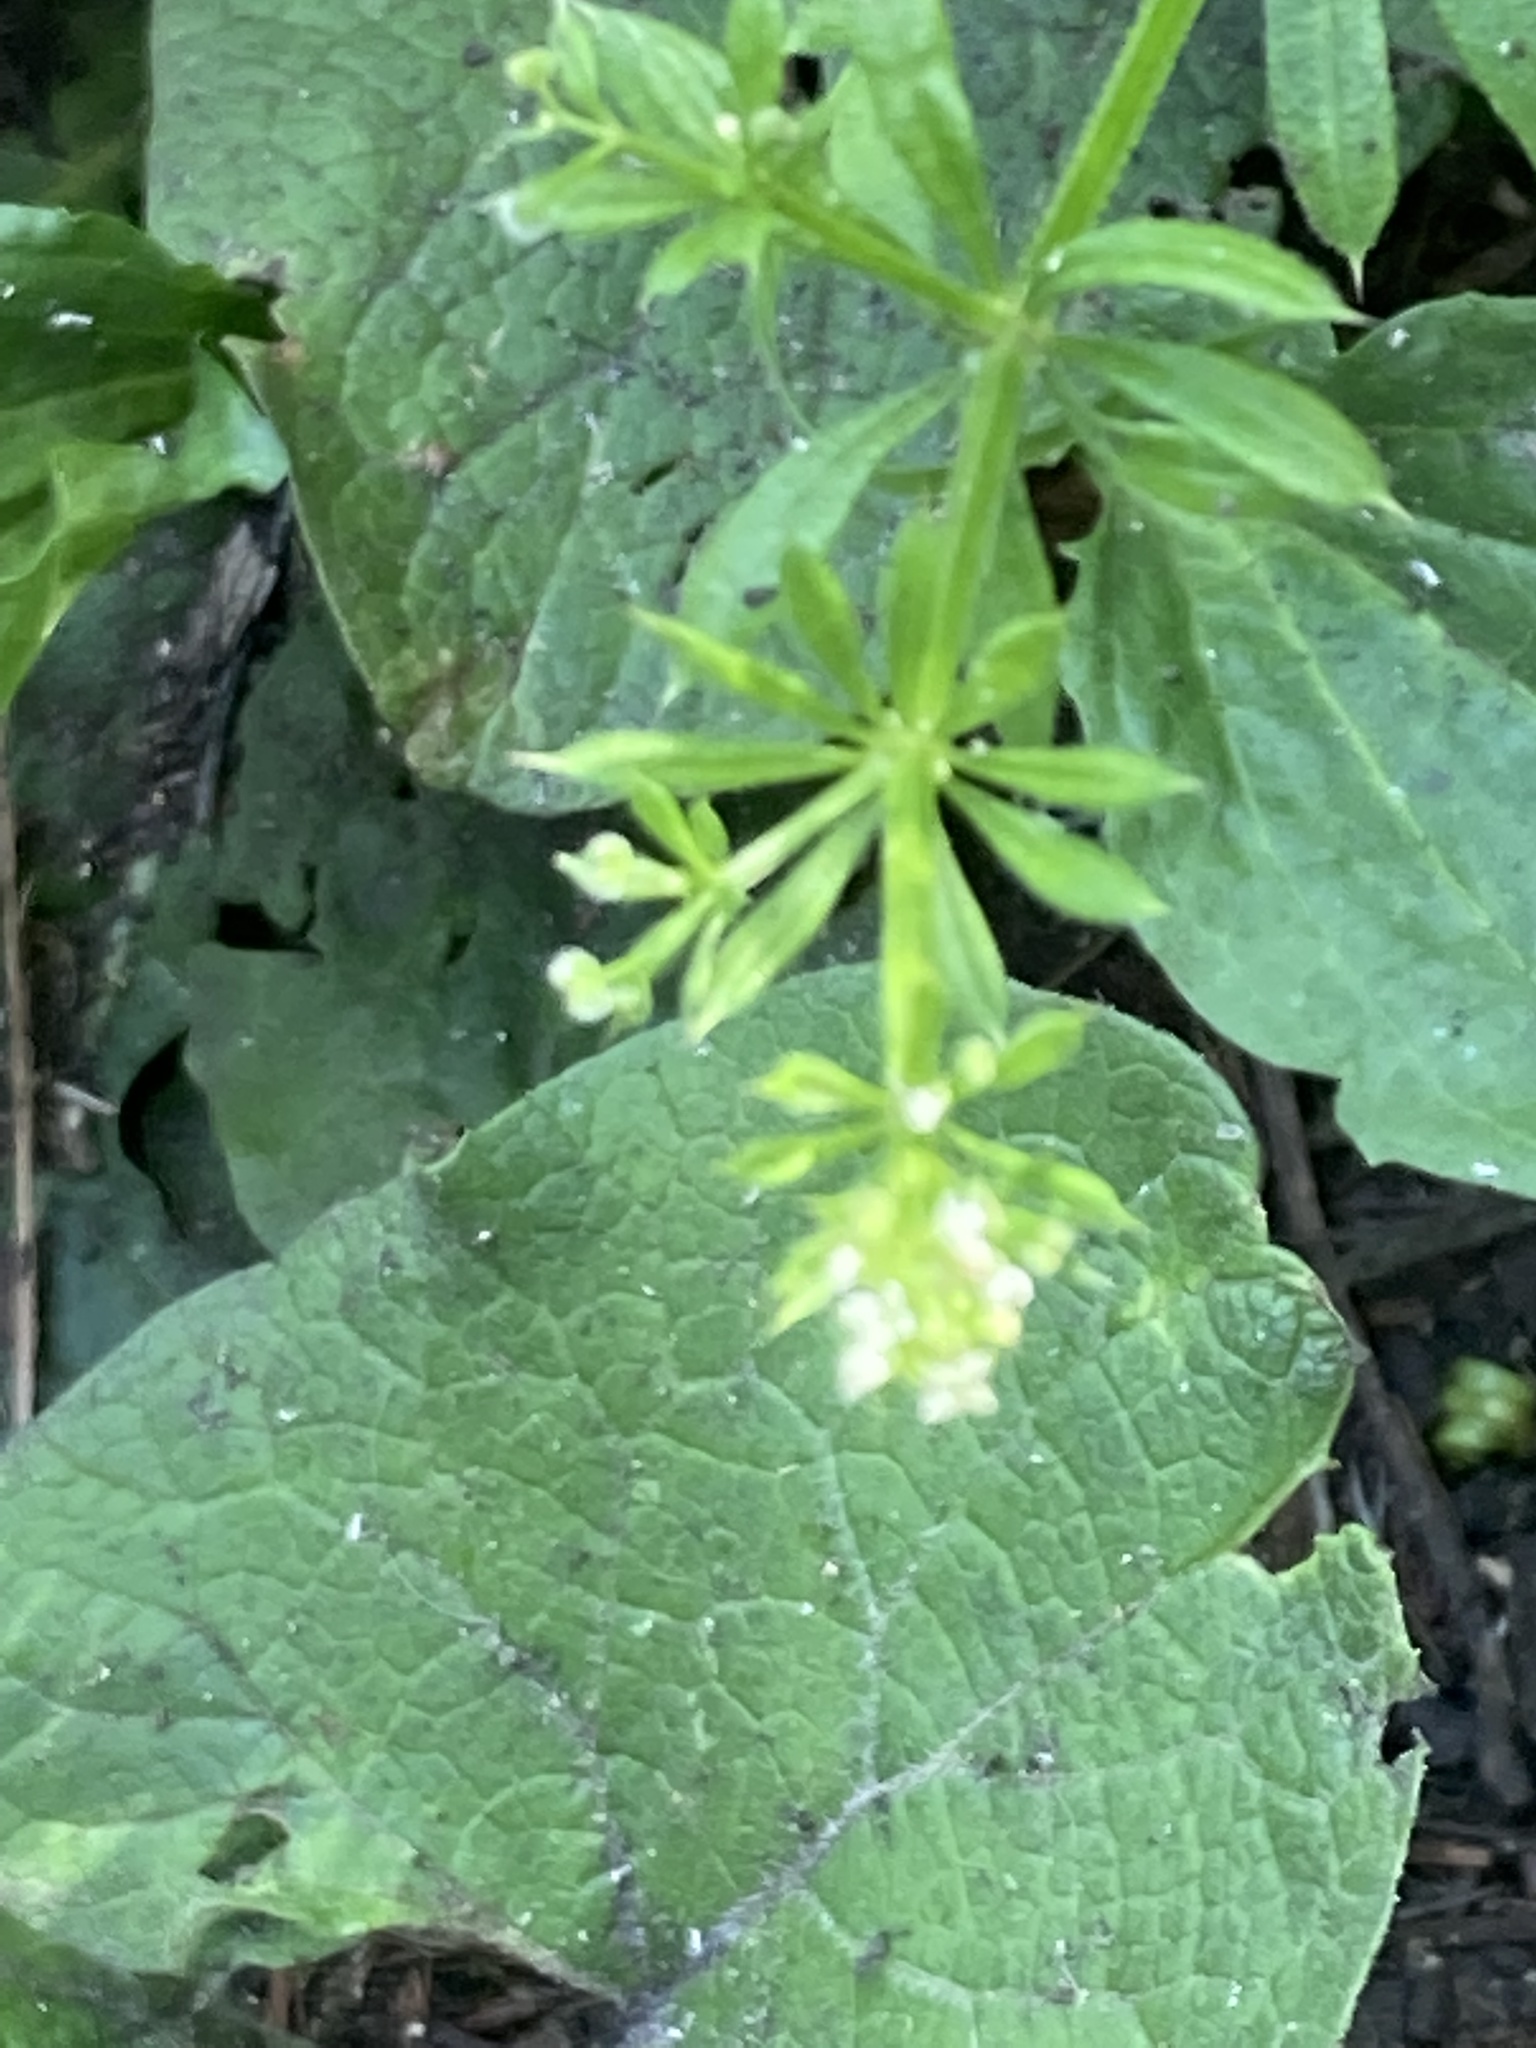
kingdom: Plantae
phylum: Tracheophyta
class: Magnoliopsida
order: Gentianales
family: Rubiaceae
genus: Galium
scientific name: Galium aparine
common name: Cleavers
